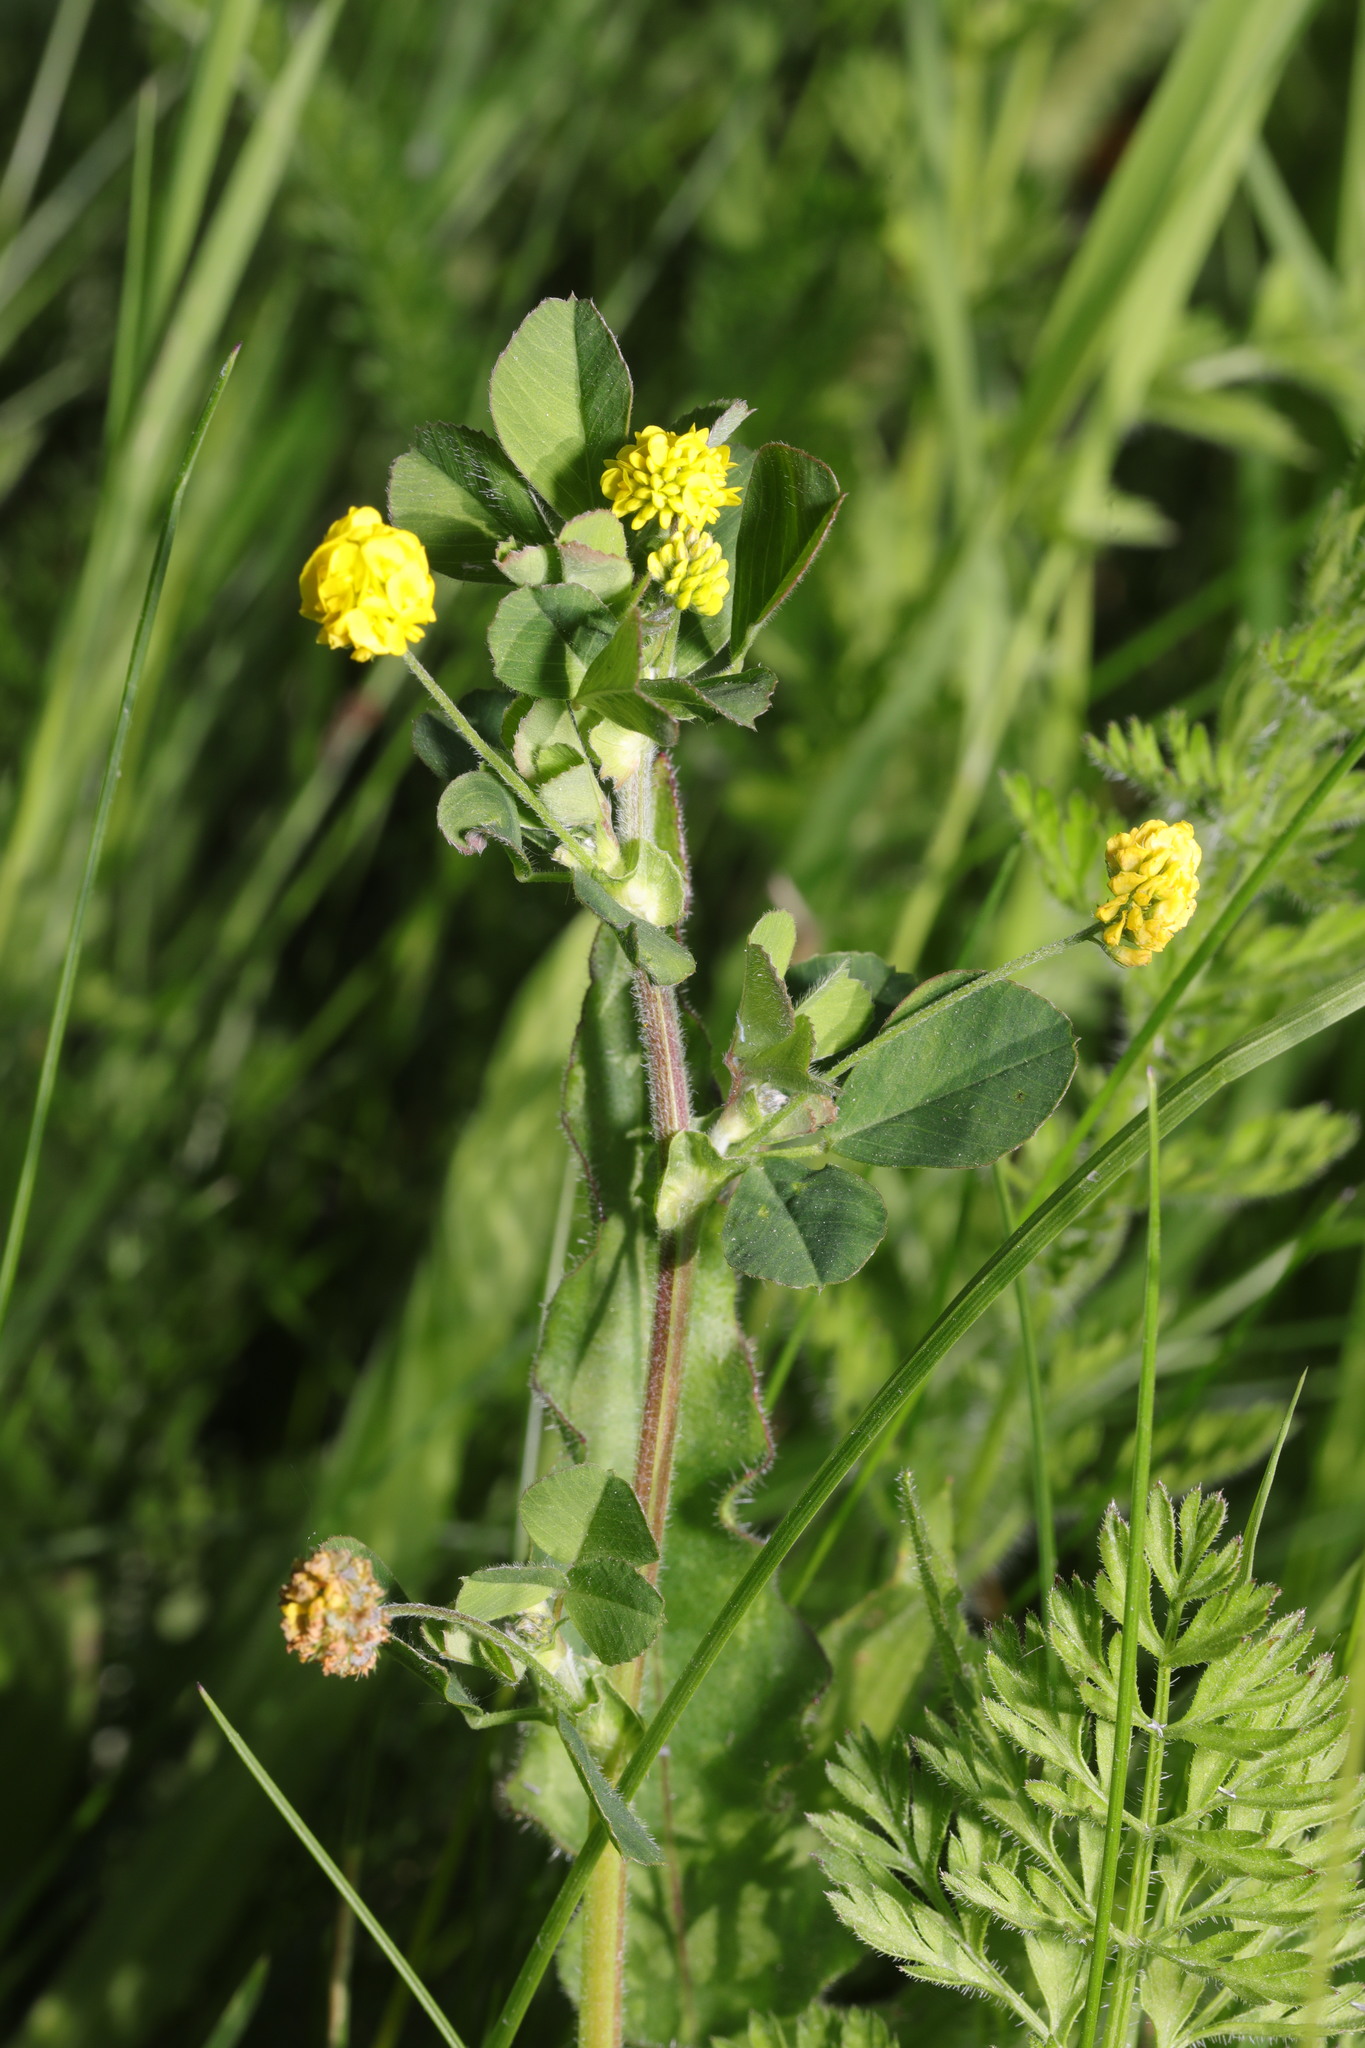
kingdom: Plantae
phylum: Tracheophyta
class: Magnoliopsida
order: Fabales
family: Fabaceae
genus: Medicago
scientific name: Medicago lupulina
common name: Black medick
